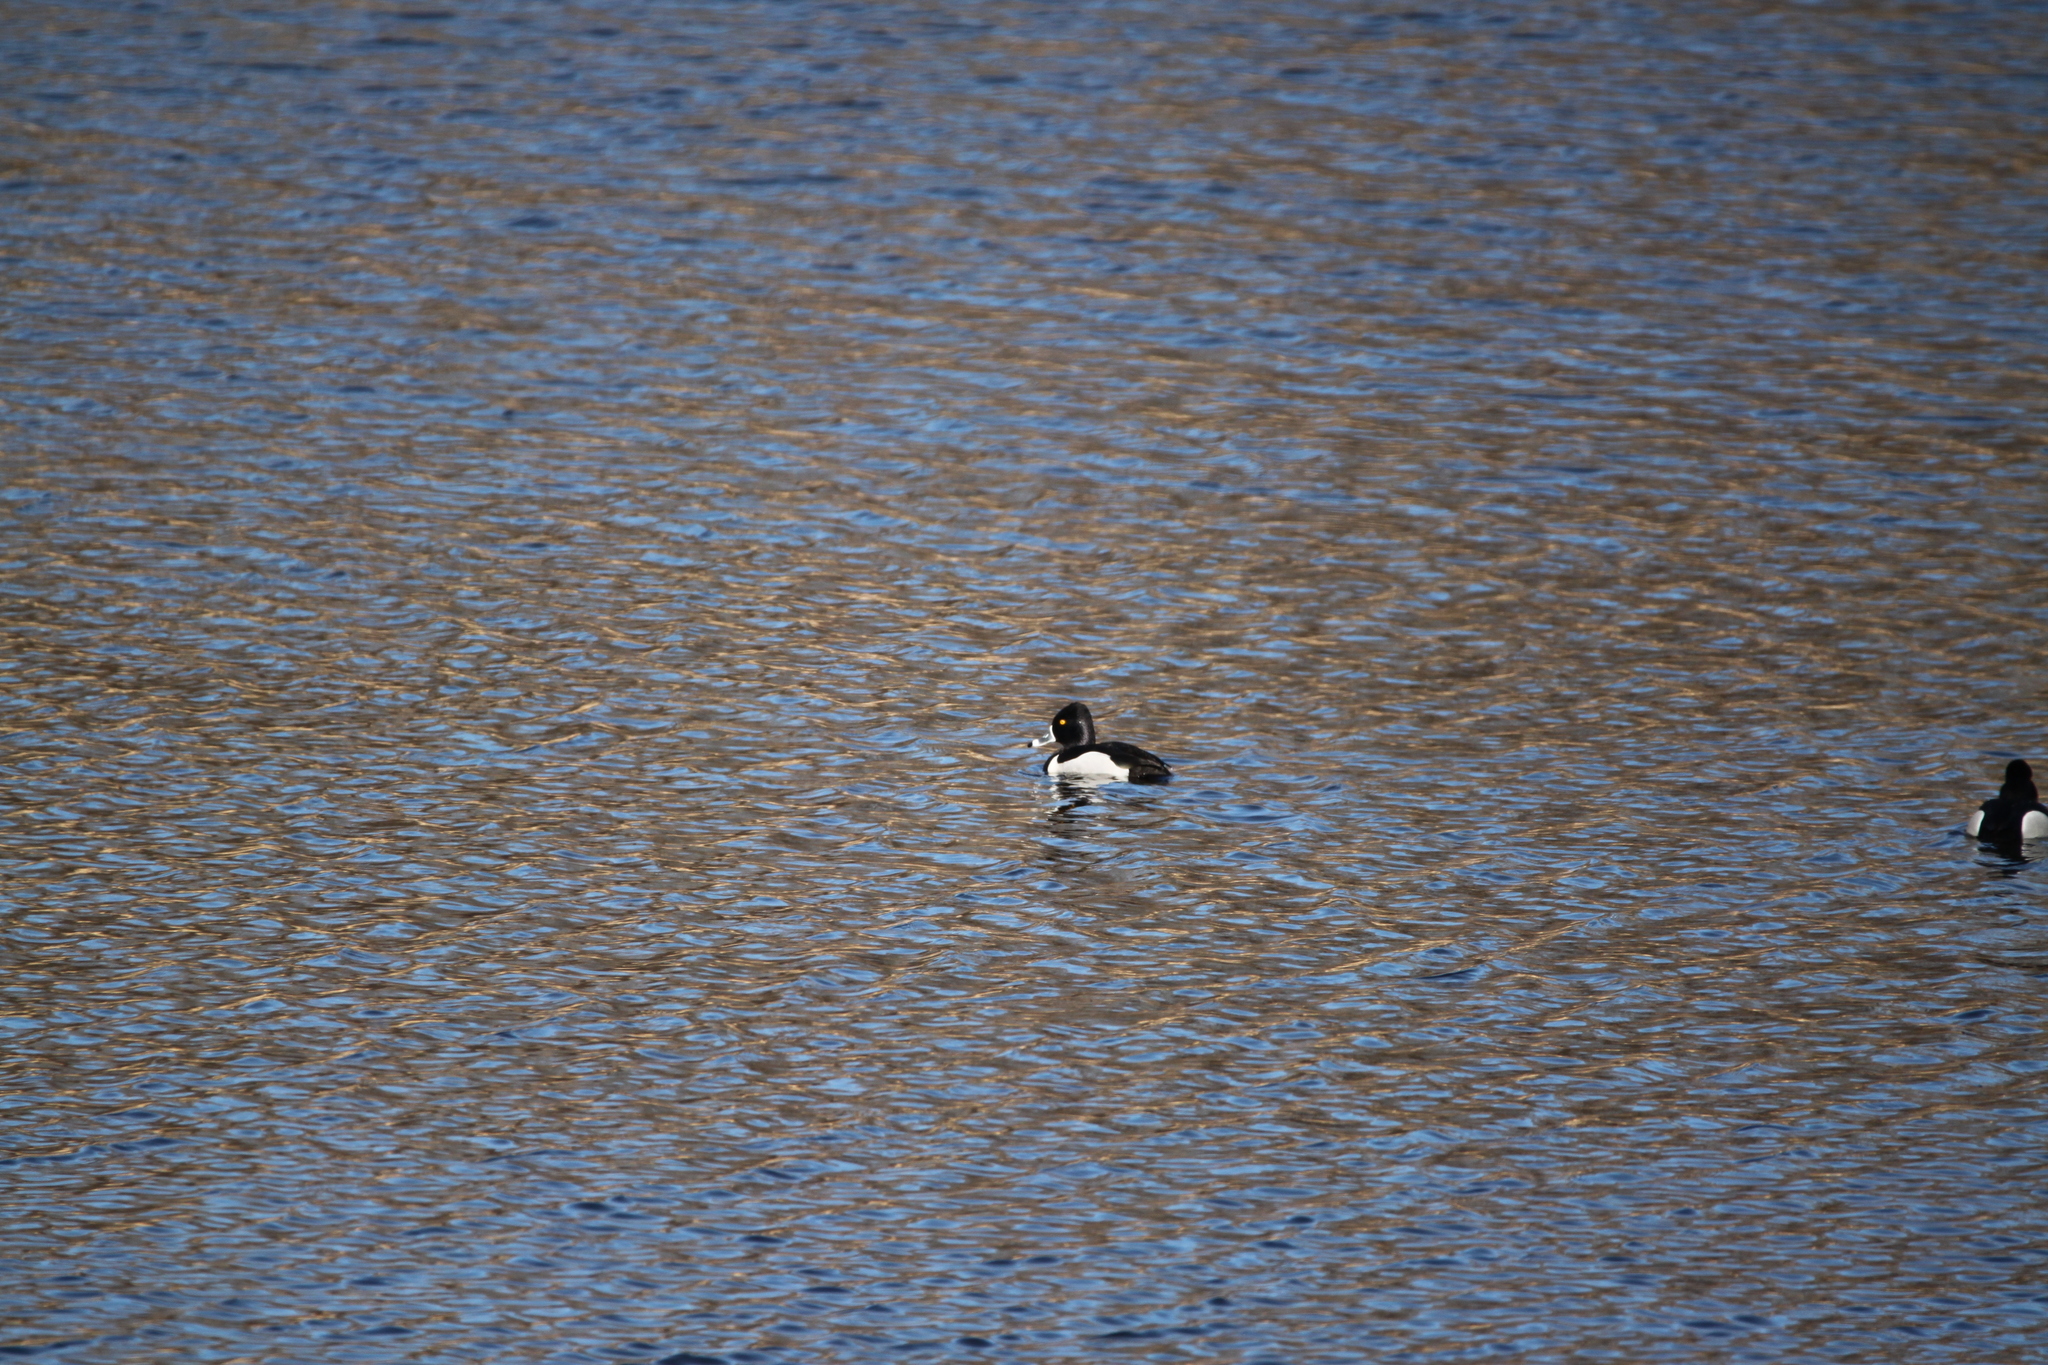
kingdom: Animalia
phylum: Chordata
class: Aves
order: Anseriformes
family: Anatidae
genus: Aythya
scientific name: Aythya collaris
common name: Ring-necked duck
